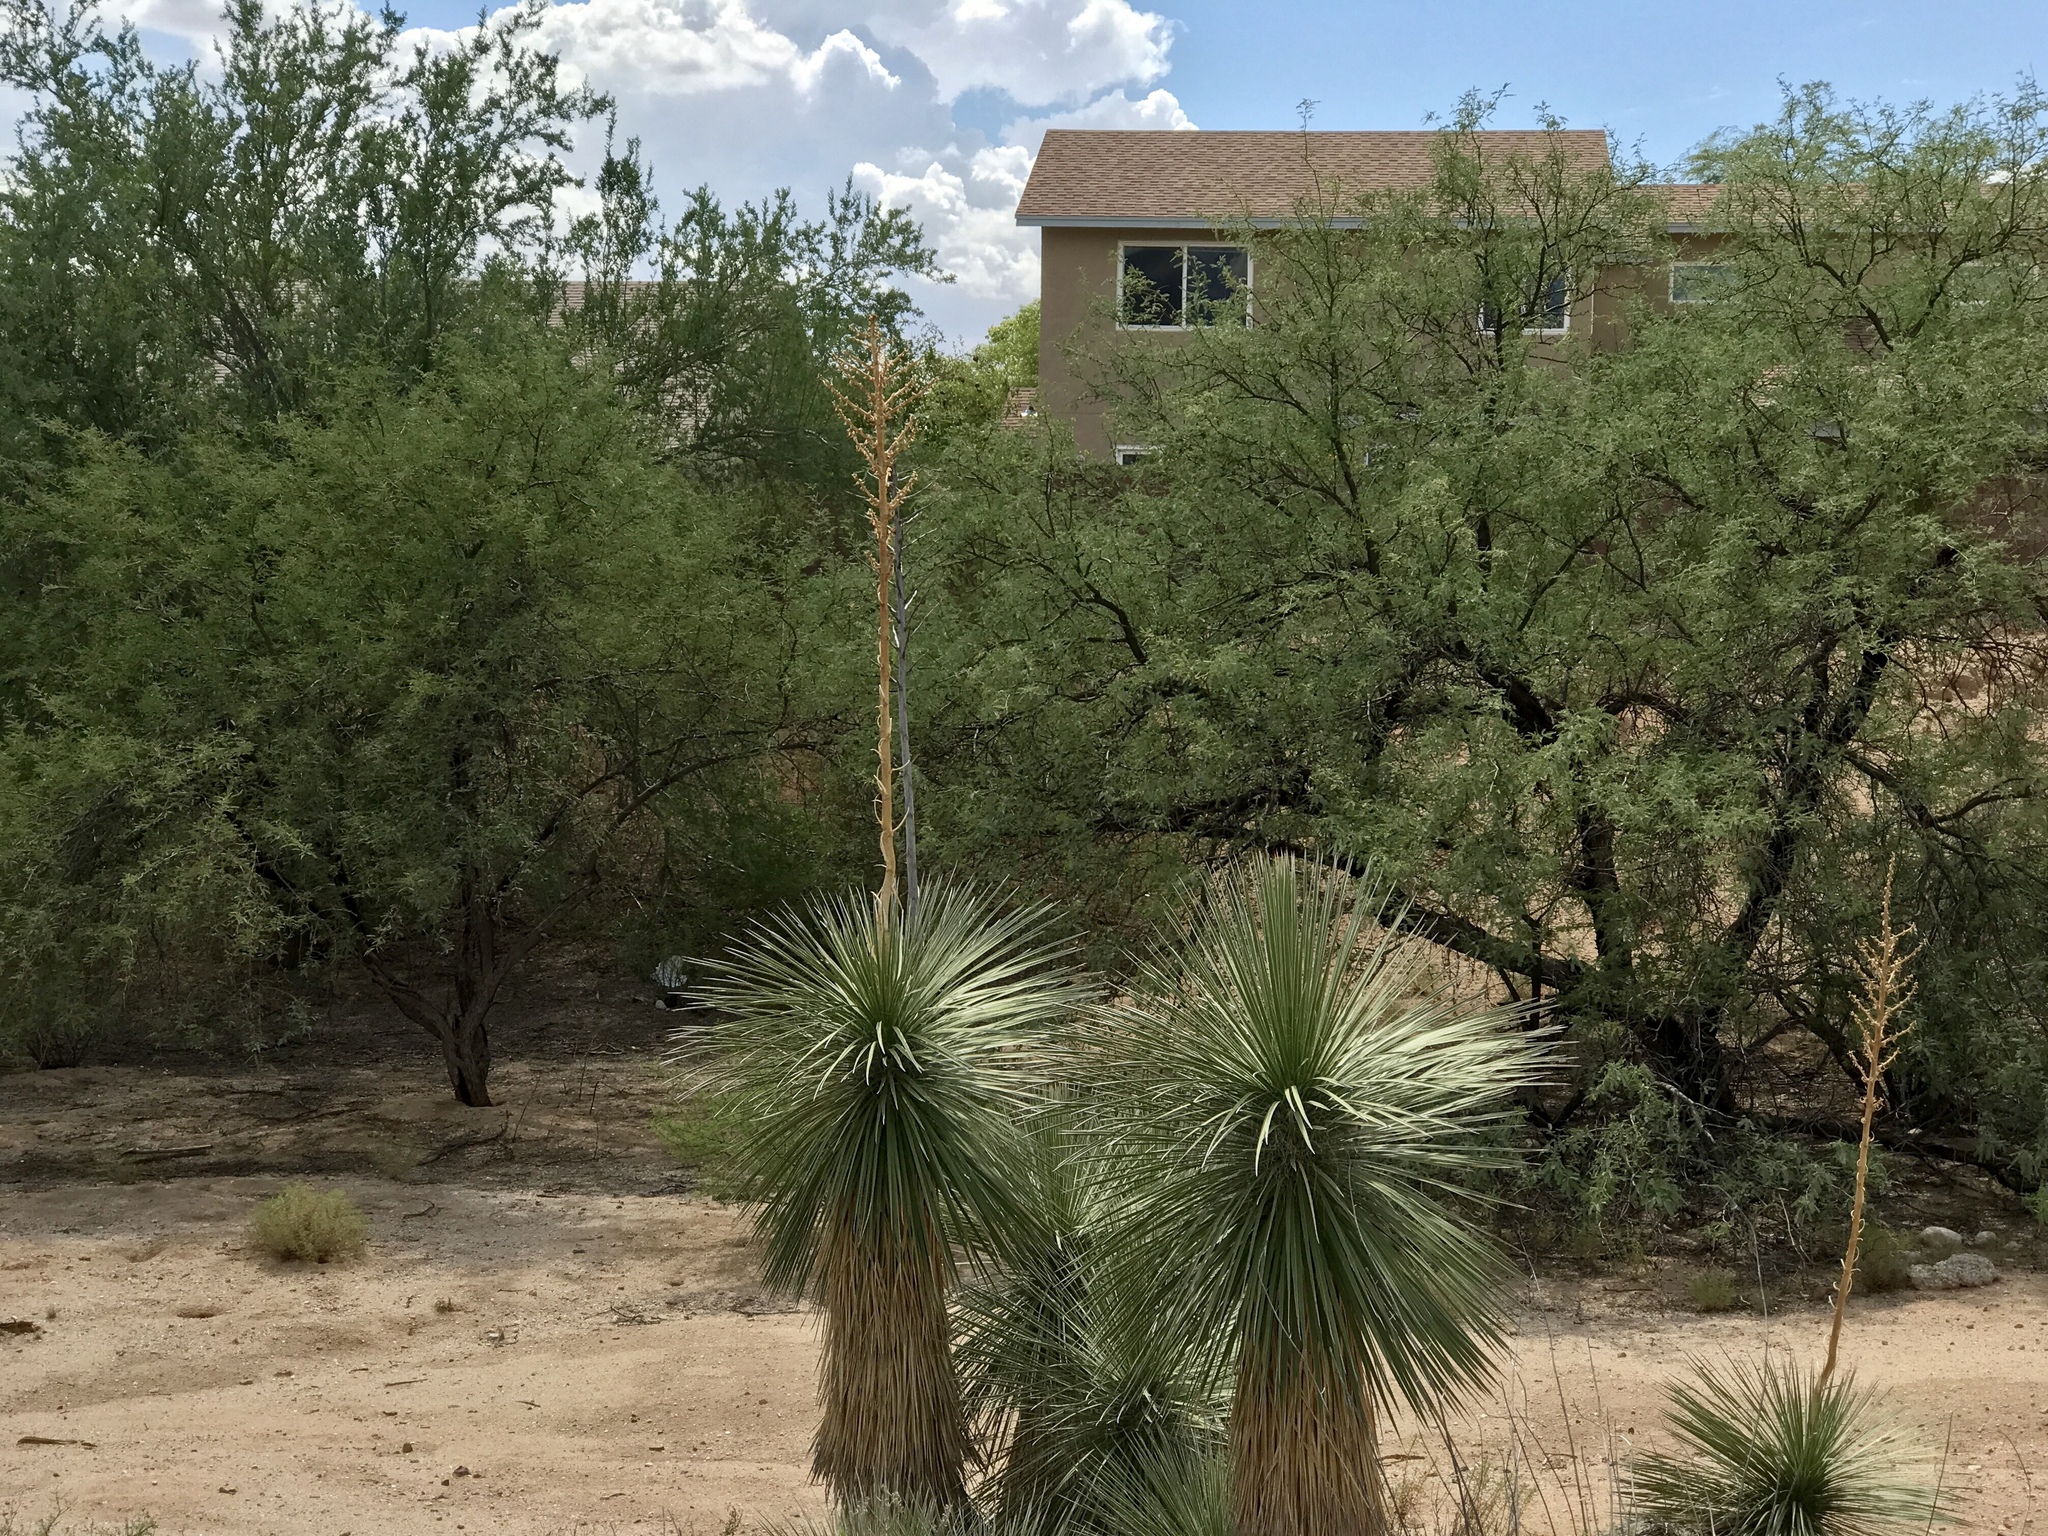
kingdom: Plantae
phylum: Tracheophyta
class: Liliopsida
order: Asparagales
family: Asparagaceae
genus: Yucca
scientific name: Yucca elata
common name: Palmella
